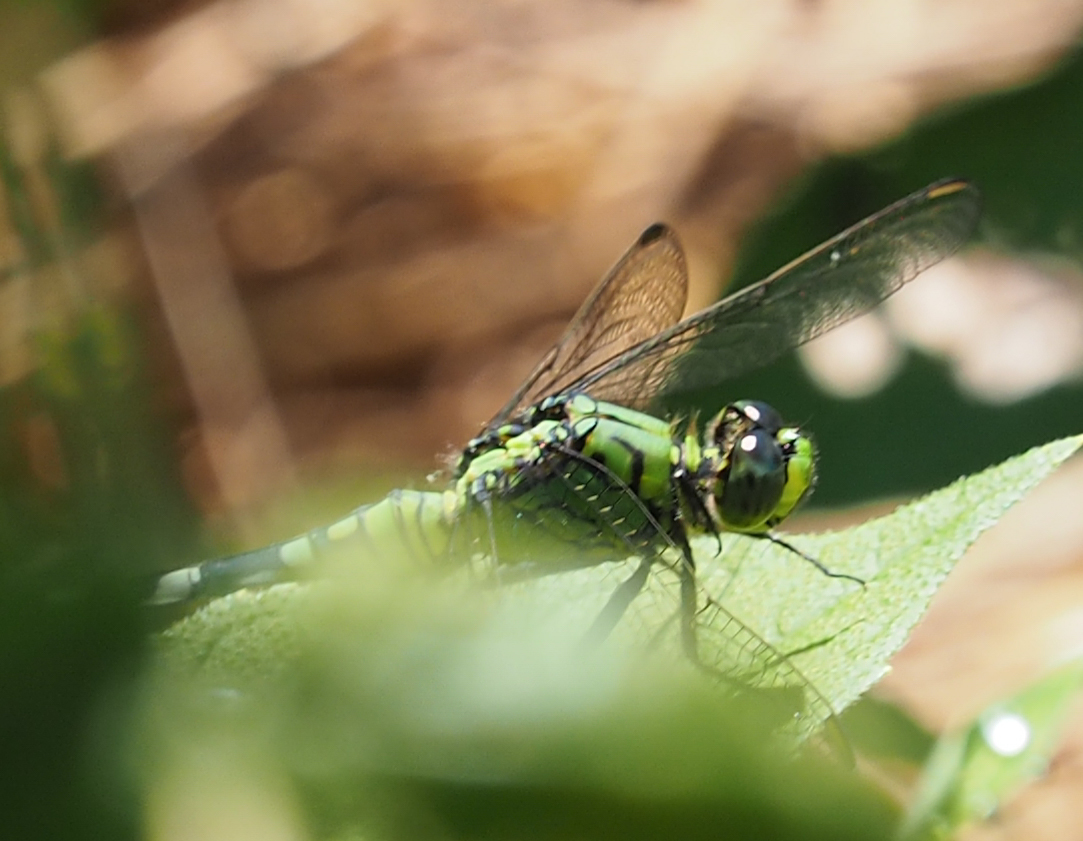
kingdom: Animalia
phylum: Arthropoda
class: Insecta
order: Odonata
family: Libellulidae
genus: Erythemis
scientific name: Erythemis simplicicollis
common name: Eastern pondhawk
